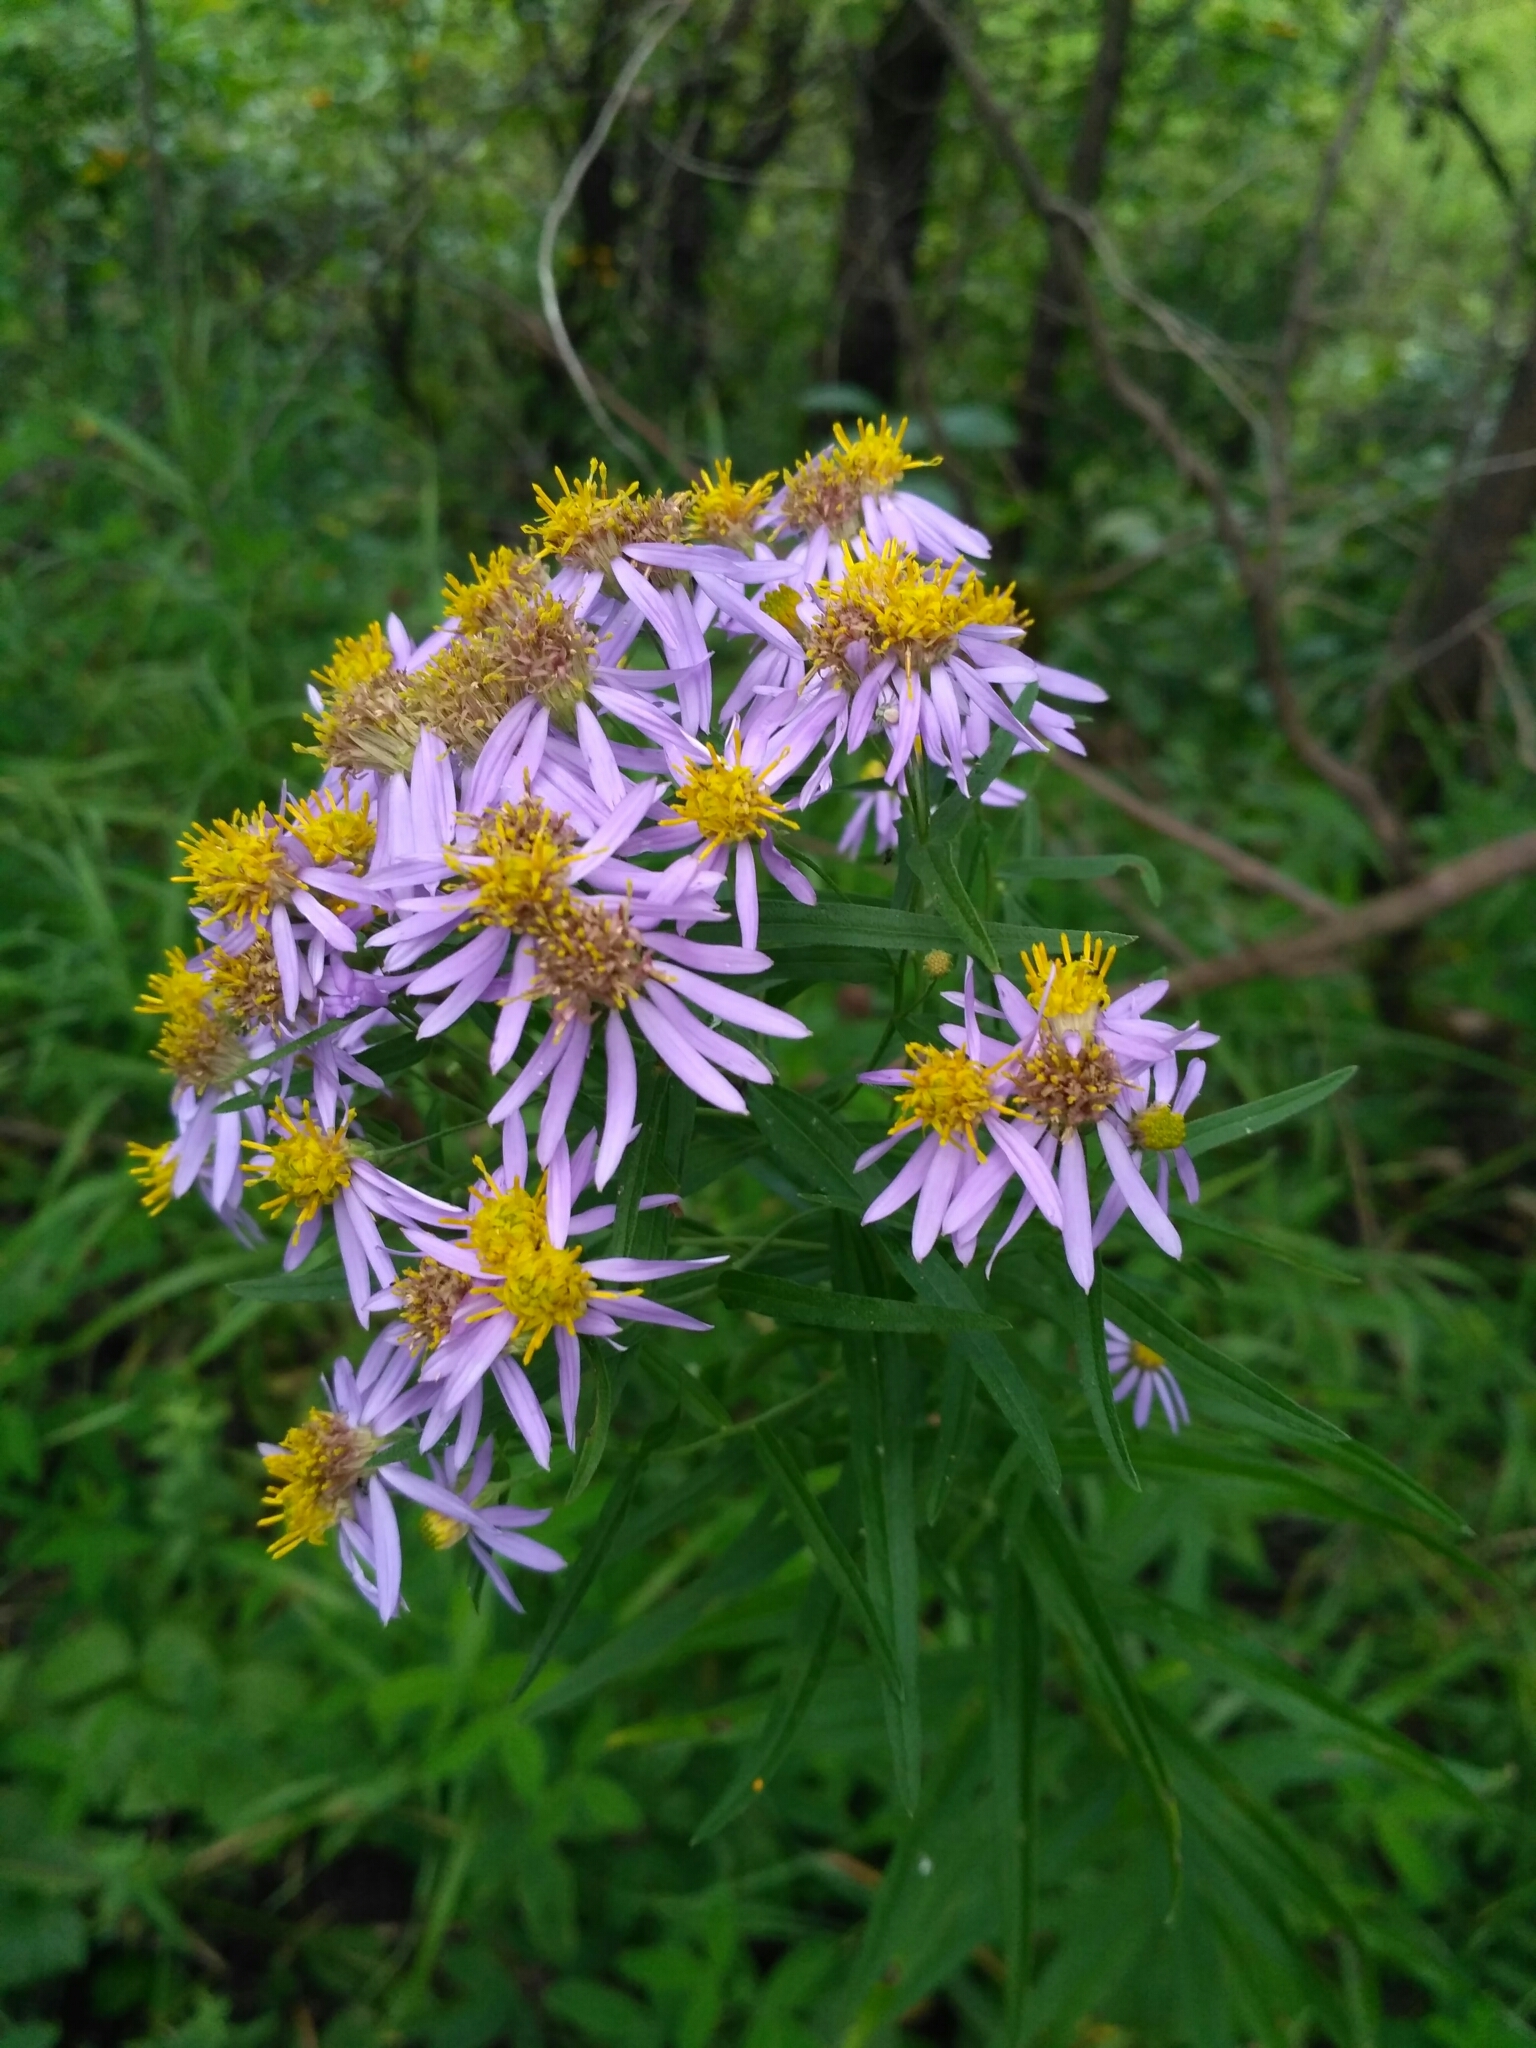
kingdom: Plantae
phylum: Tracheophyta
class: Magnoliopsida
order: Asterales
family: Asteraceae
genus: Galatella
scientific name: Galatella sedifolia
